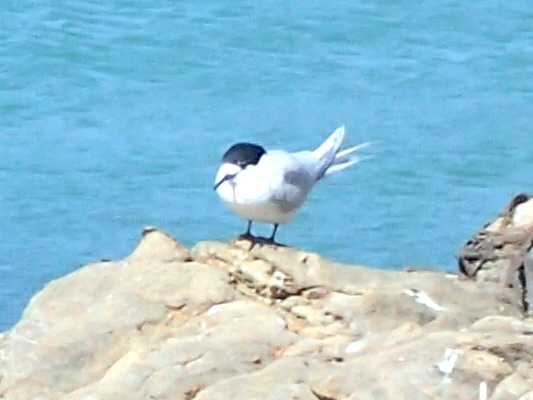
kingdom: Animalia
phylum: Chordata
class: Aves
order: Charadriiformes
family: Laridae
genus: Sterna
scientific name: Sterna striata
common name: White-fronted tern
